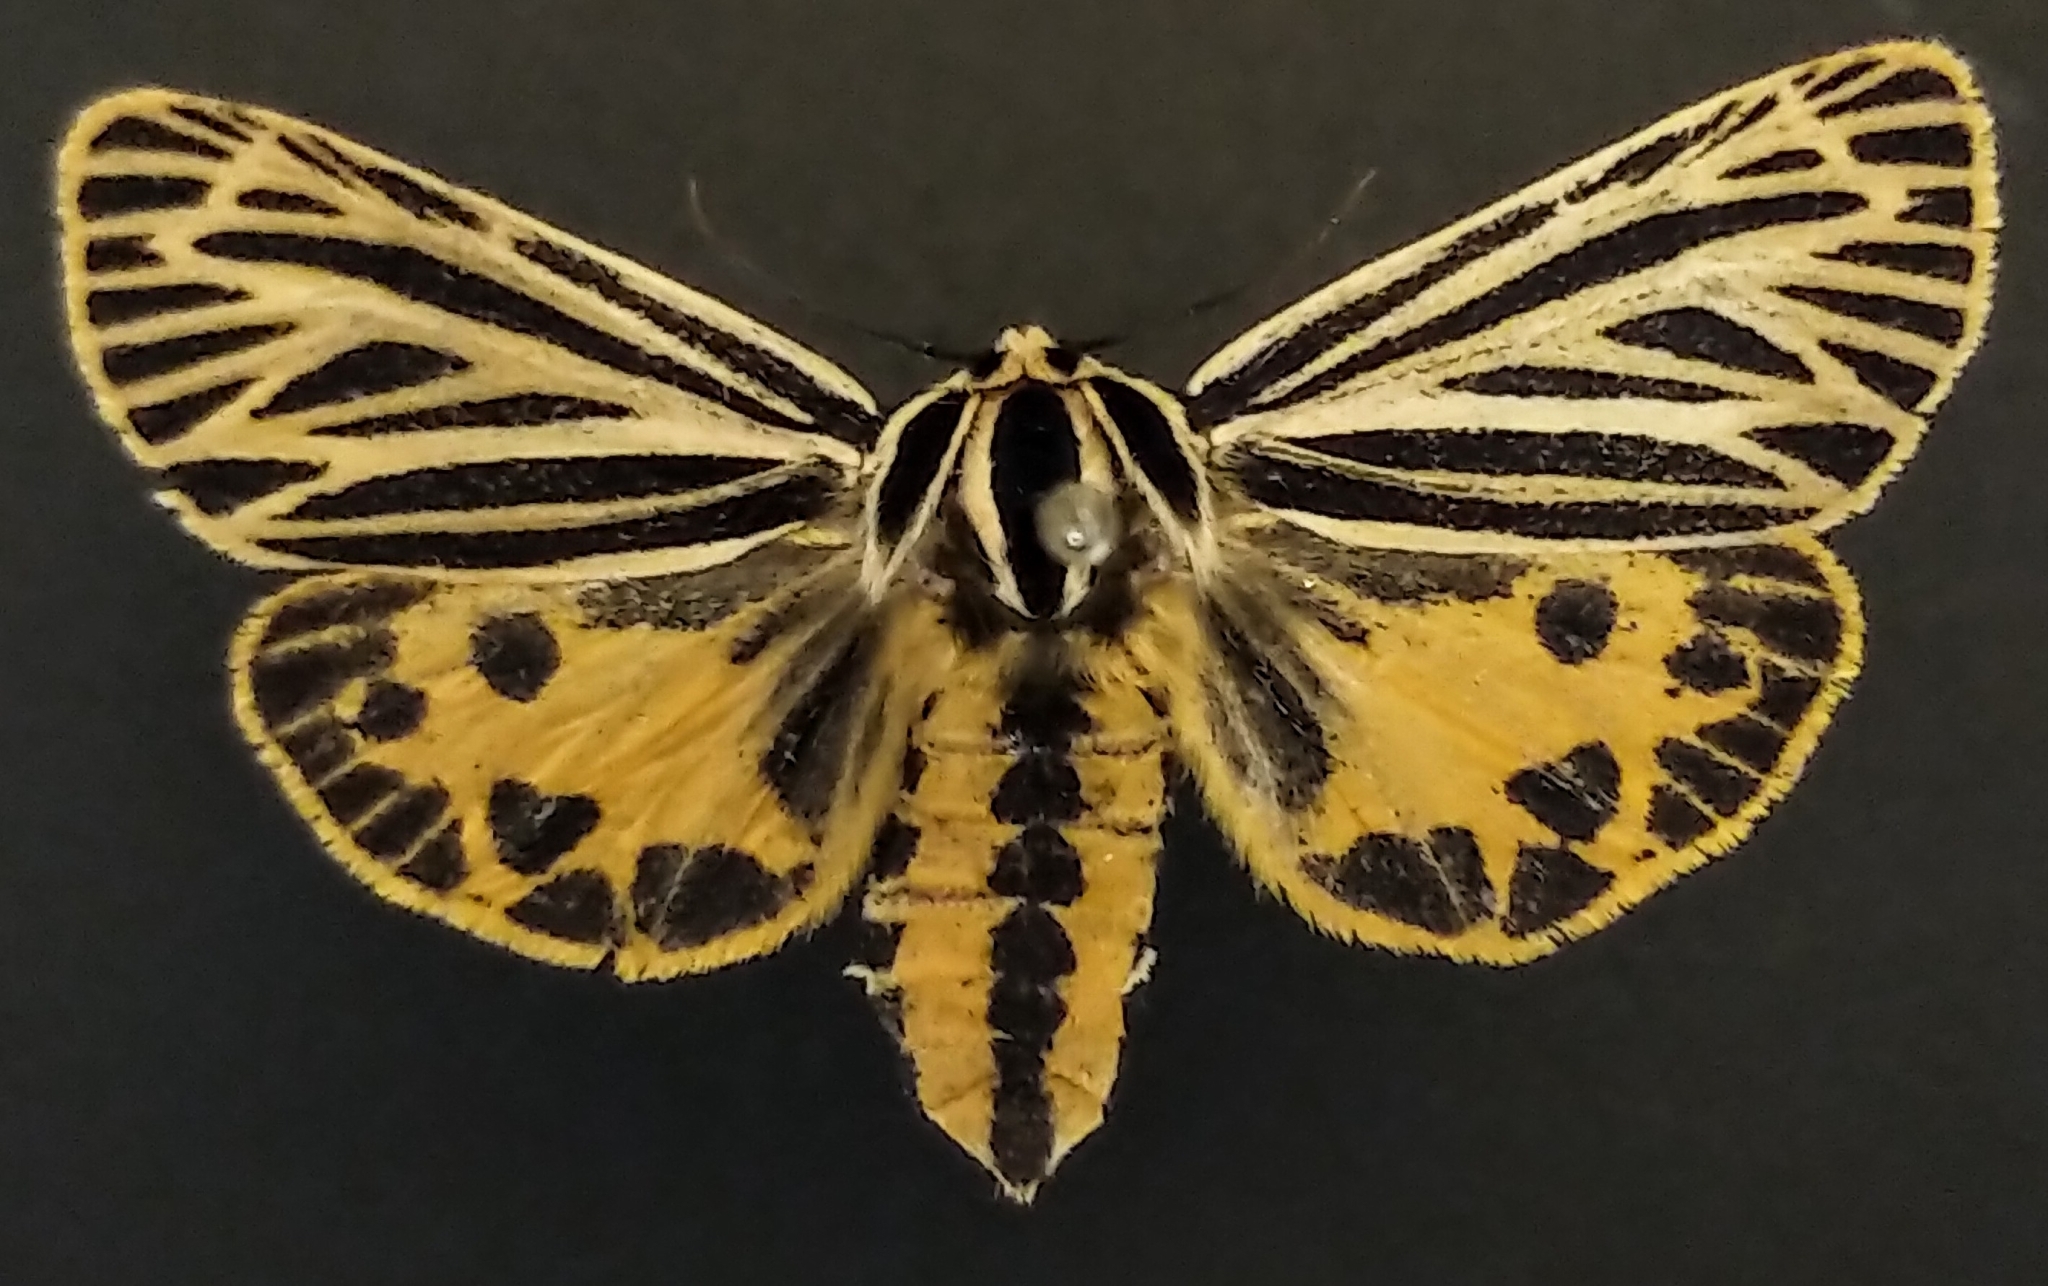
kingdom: Animalia
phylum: Arthropoda
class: Insecta
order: Lepidoptera
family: Erebidae
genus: Grammia
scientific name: Grammia virguncula
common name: Little tiger moth
